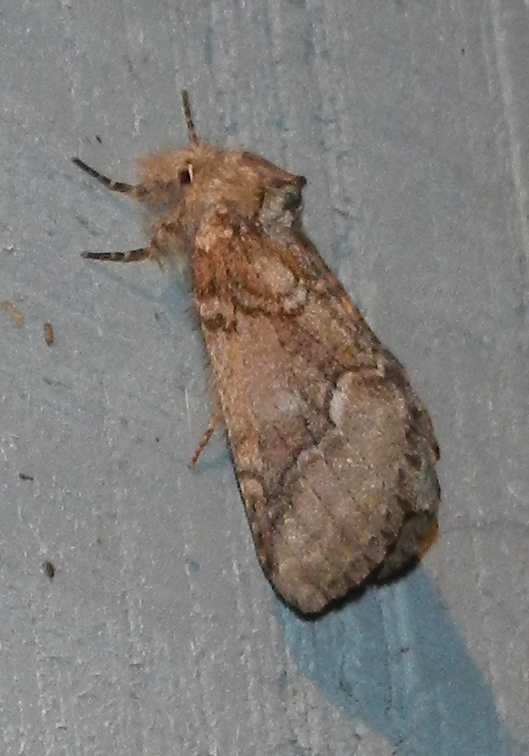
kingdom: Animalia
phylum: Arthropoda
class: Insecta
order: Lepidoptera
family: Notodontidae
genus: Lochmaeus
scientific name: Lochmaeus bilineata
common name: Double-lined prominent
